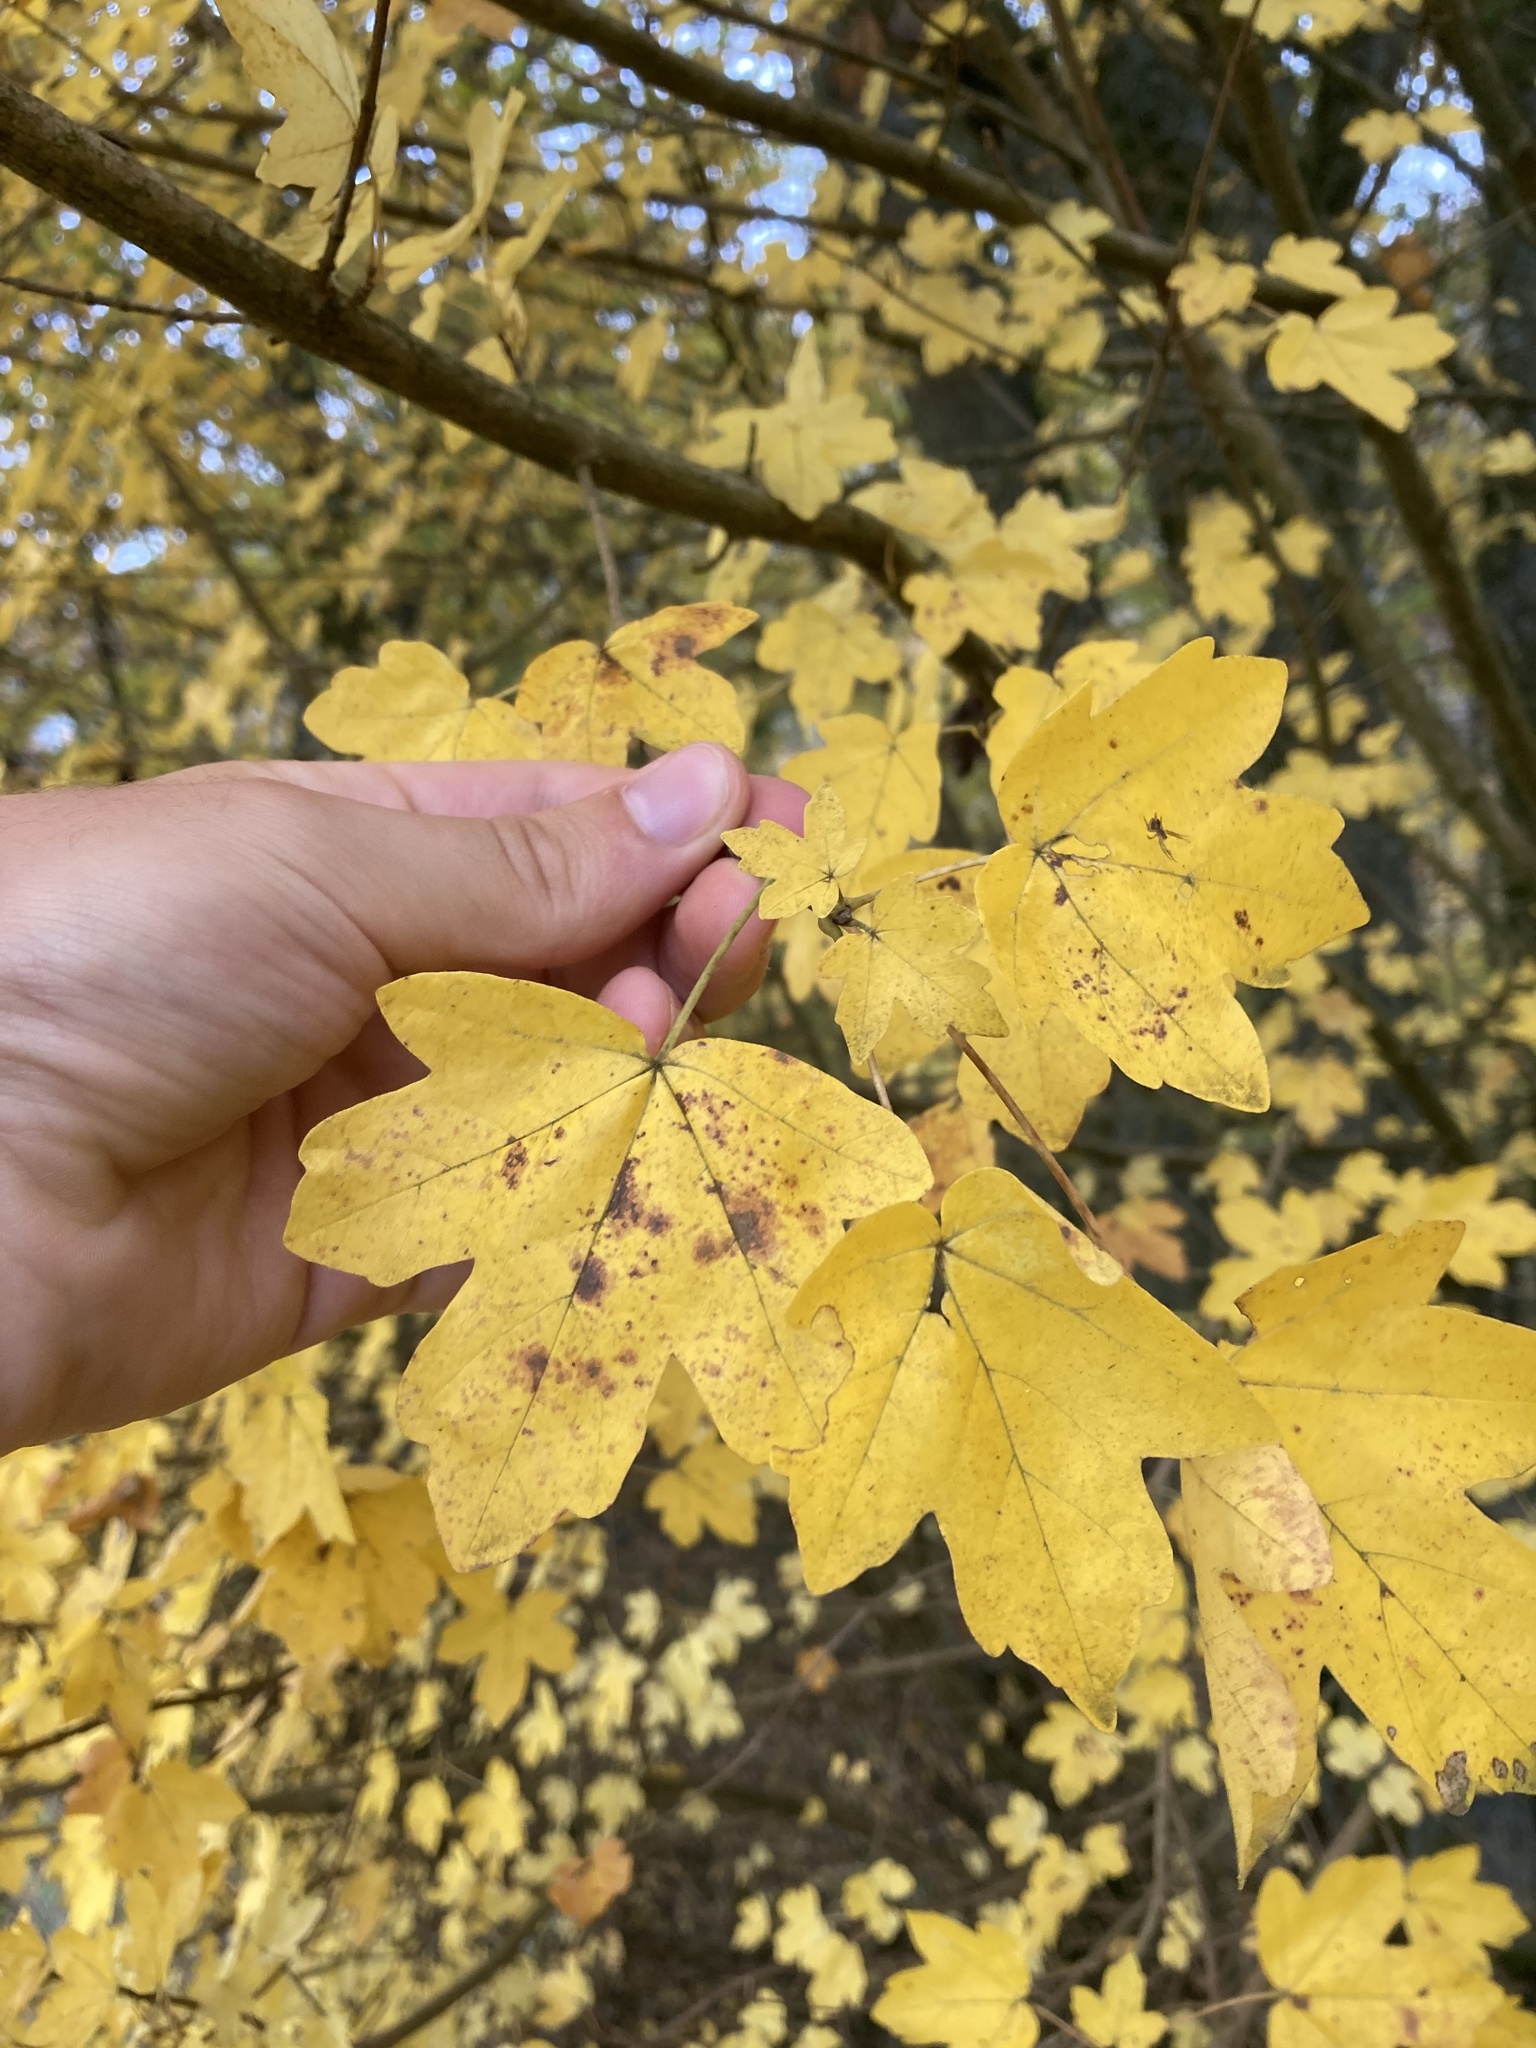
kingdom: Plantae
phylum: Tracheophyta
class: Magnoliopsida
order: Sapindales
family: Sapindaceae
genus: Acer
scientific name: Acer campestre
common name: Field maple
